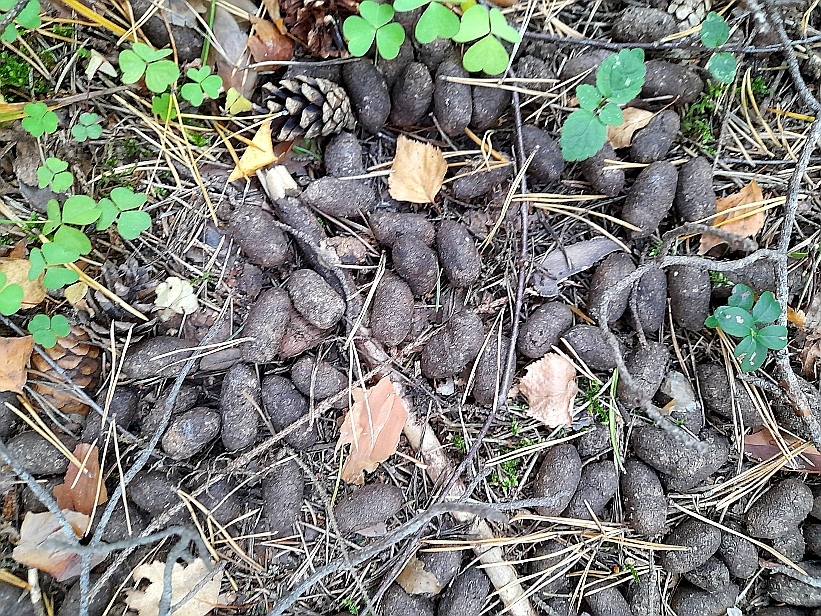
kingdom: Plantae
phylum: Tracheophyta
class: Magnoliopsida
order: Oxalidales
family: Oxalidaceae
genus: Oxalis
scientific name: Oxalis acetosella
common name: Wood-sorrel
